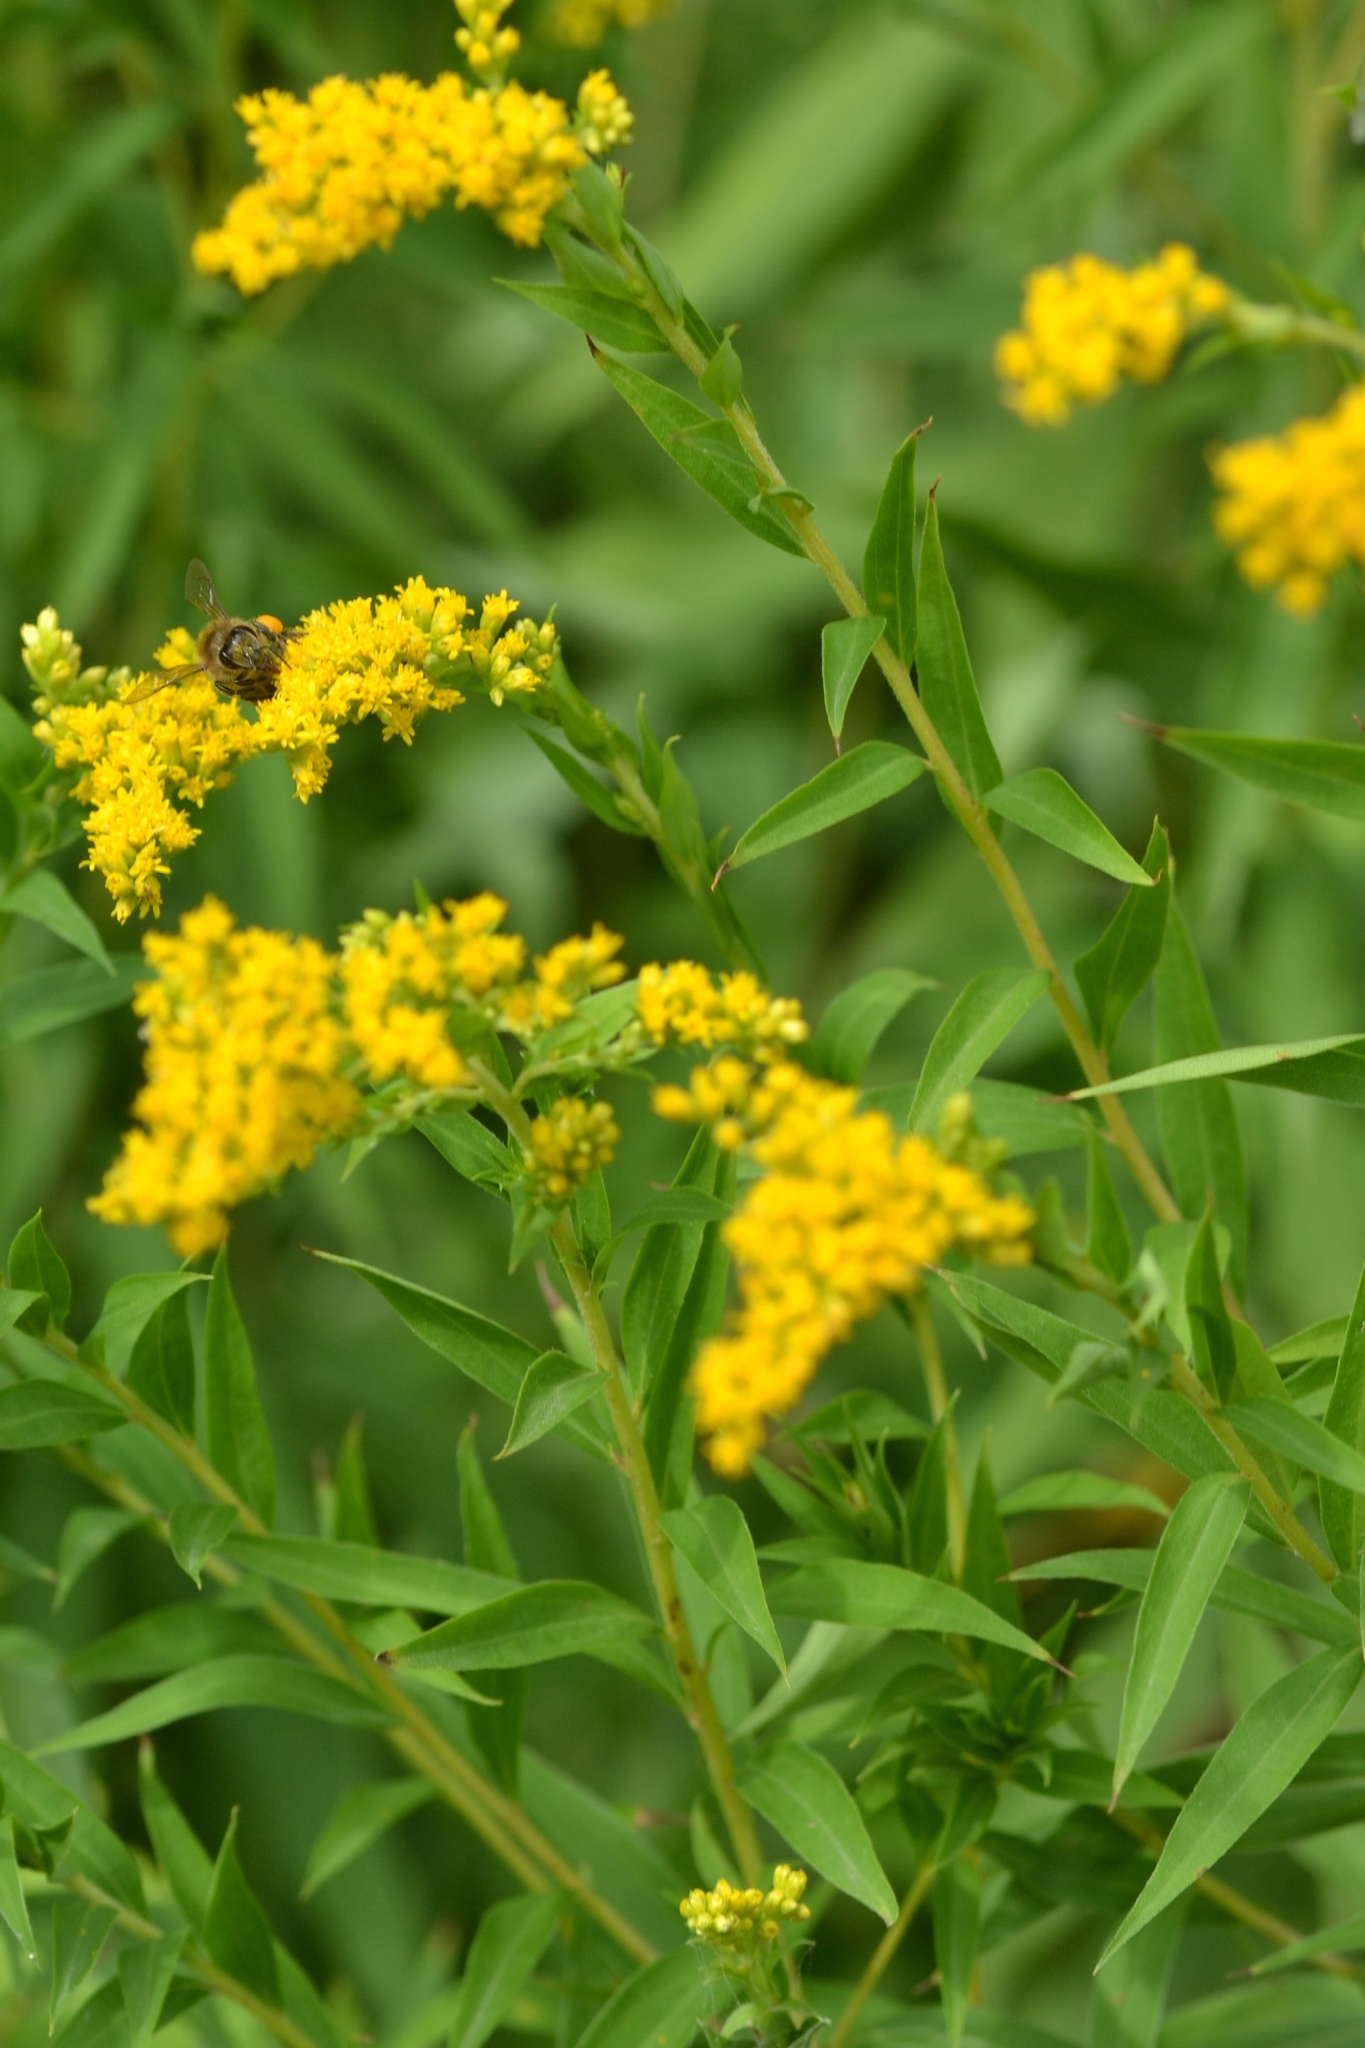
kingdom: Plantae
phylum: Tracheophyta
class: Magnoliopsida
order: Asterales
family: Asteraceae
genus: Solidago
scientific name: Solidago gigantea
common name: Giant goldenrod
